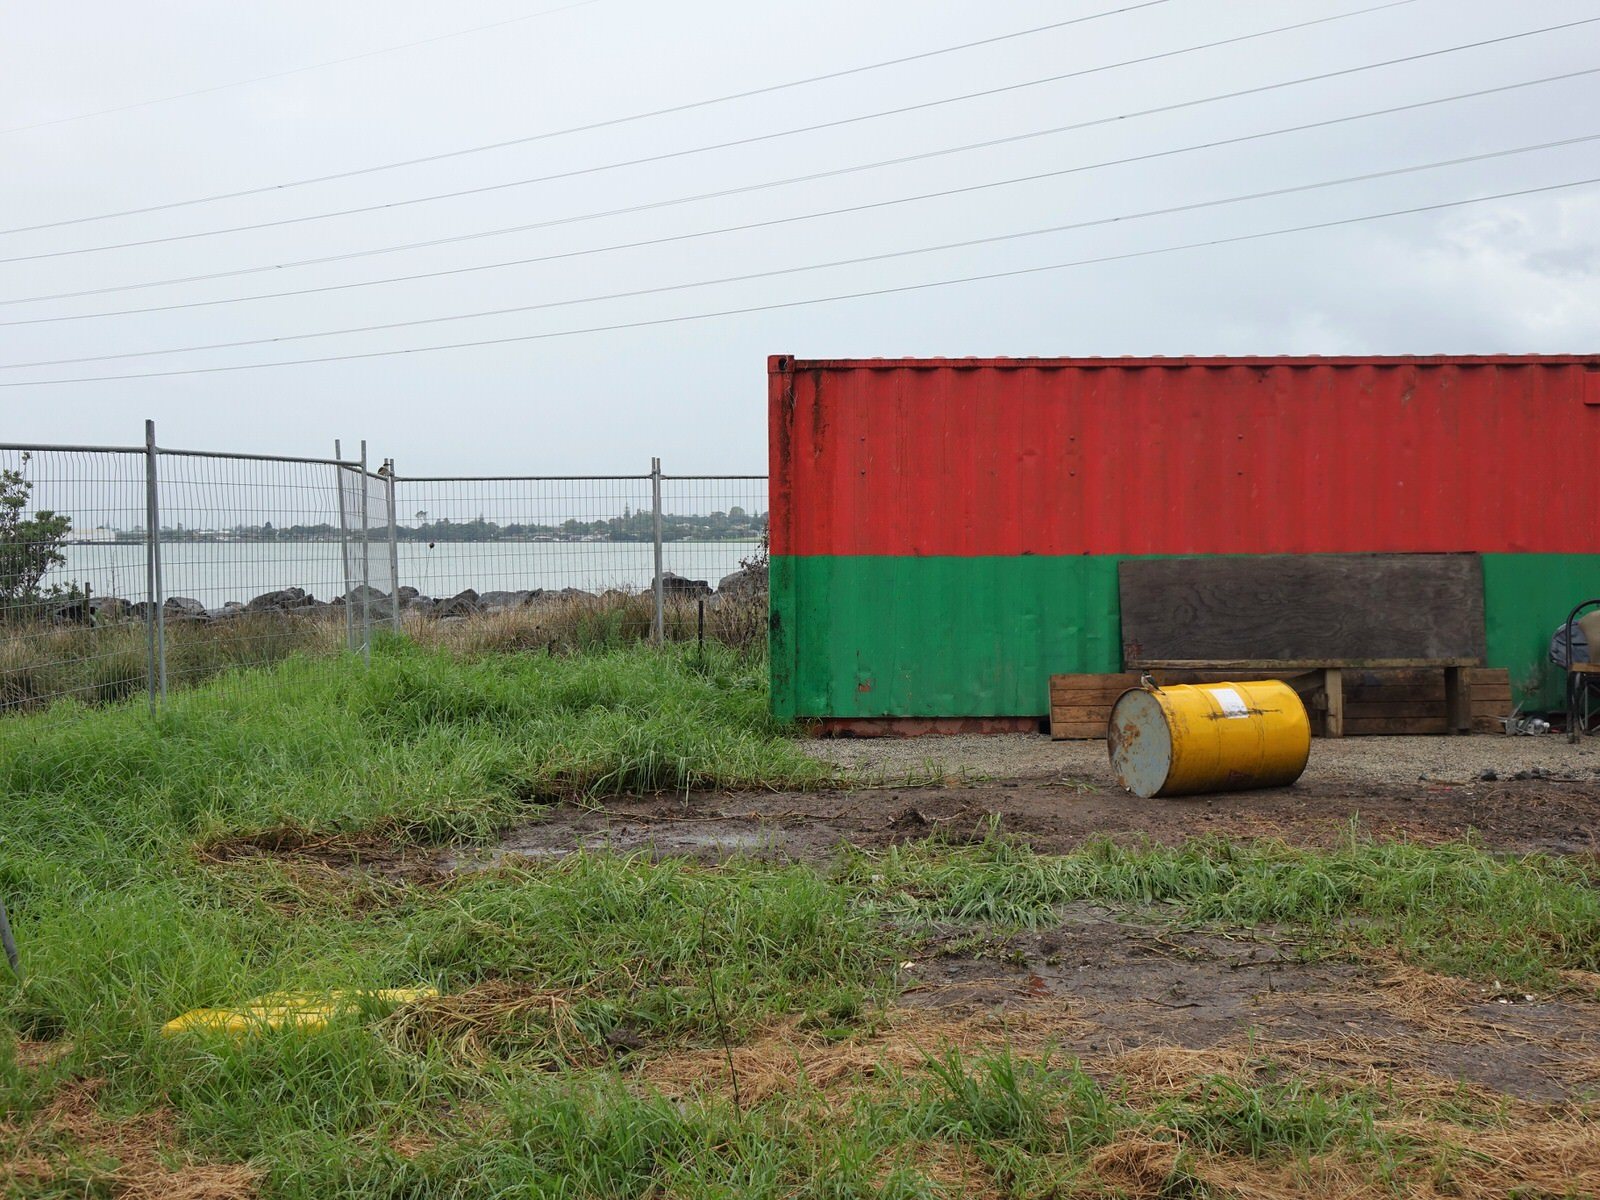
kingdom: Animalia
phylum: Chordata
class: Aves
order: Coraciiformes
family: Alcedinidae
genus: Todiramphus
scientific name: Todiramphus sanctus
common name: Sacred kingfisher
